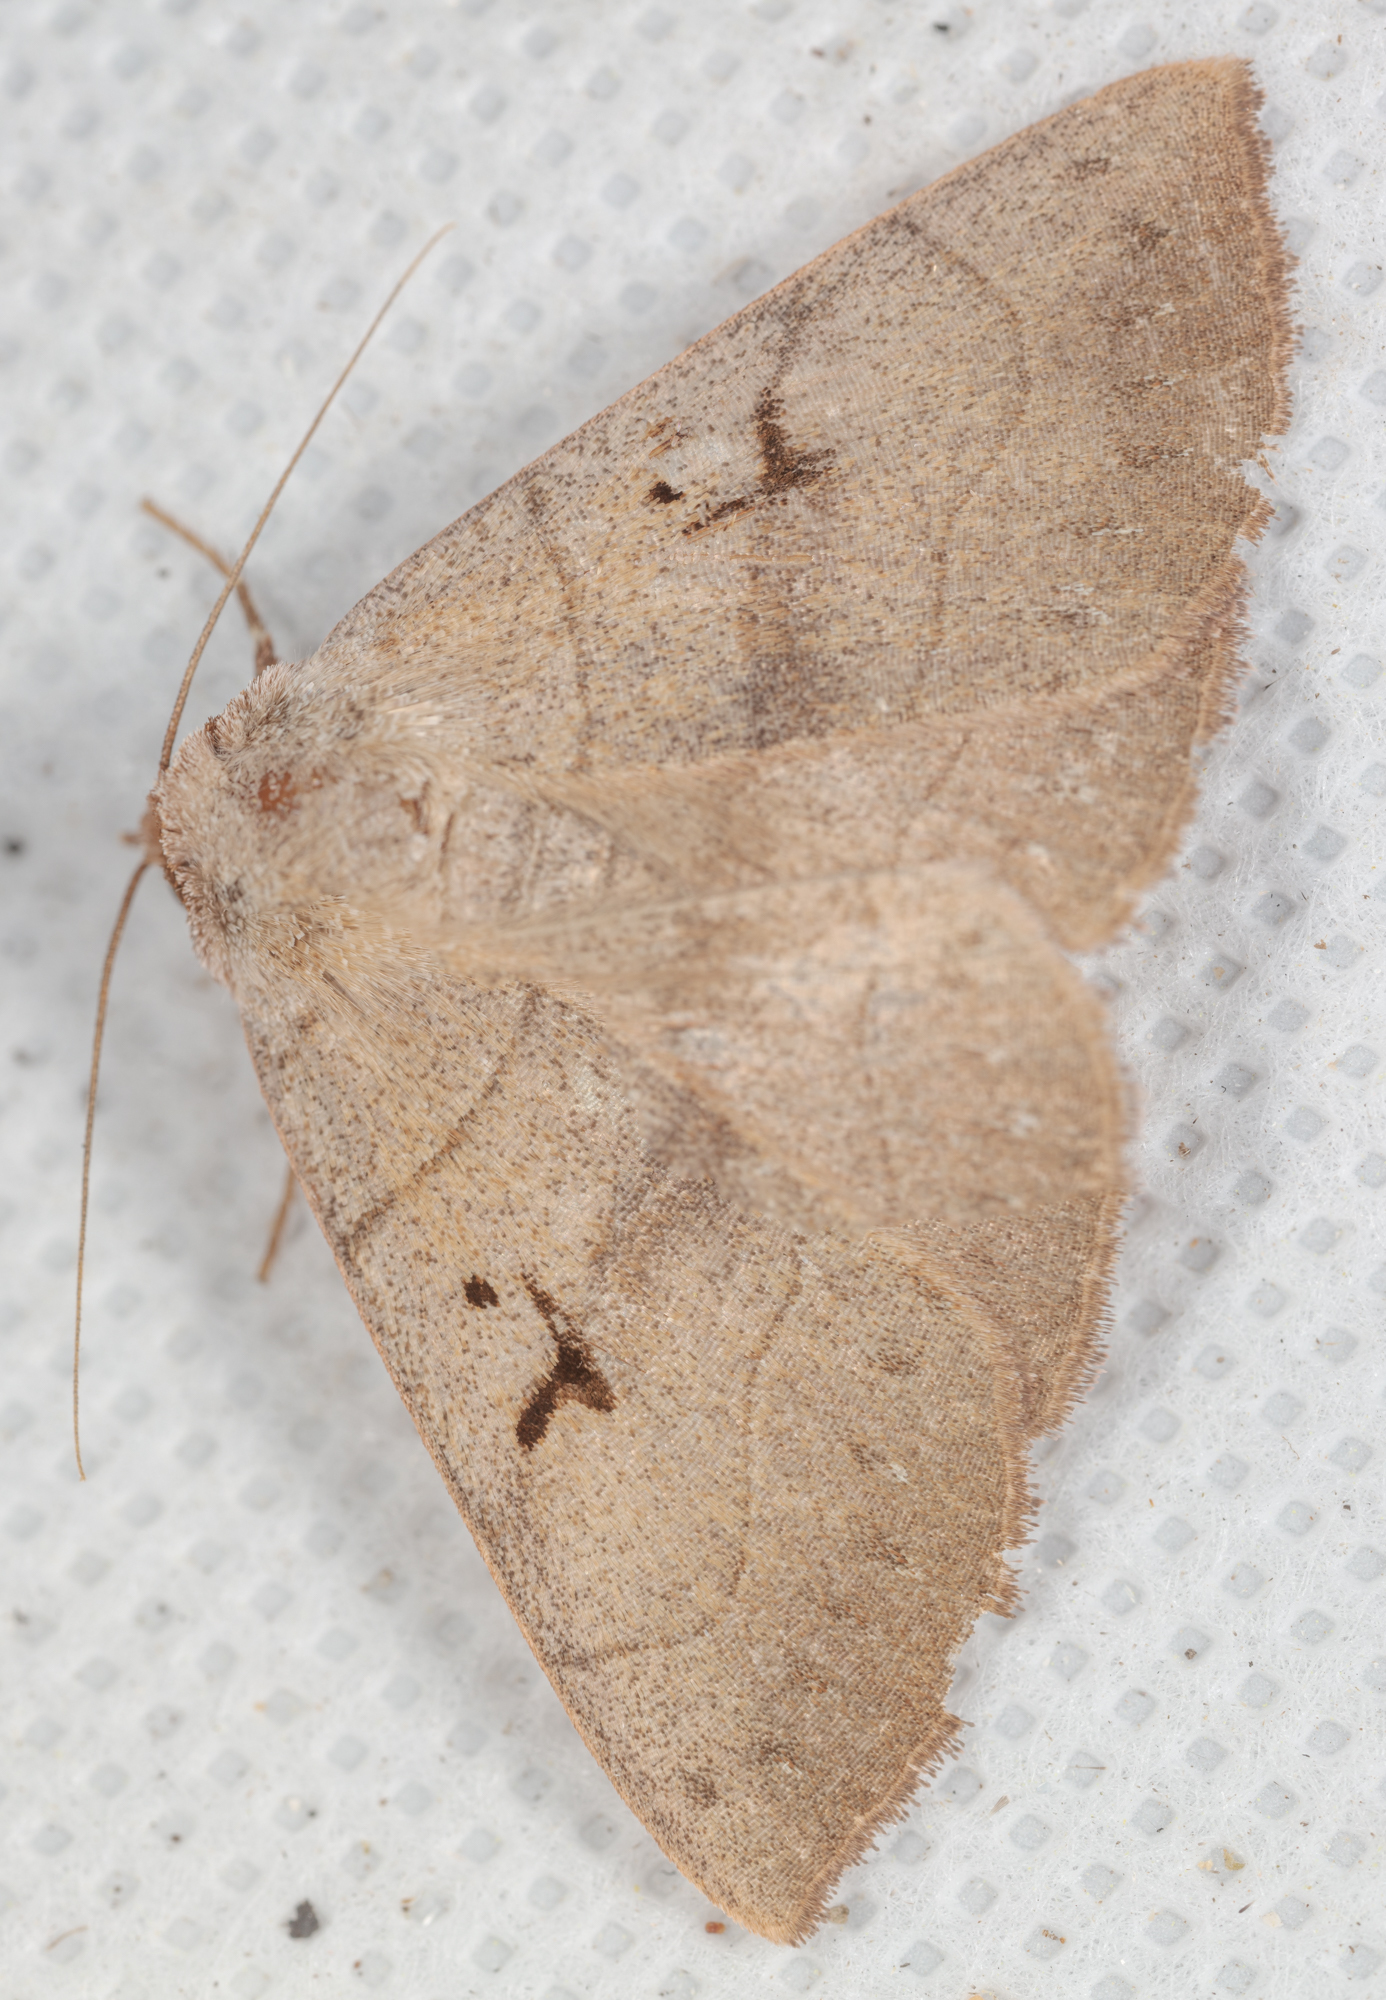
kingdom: Animalia
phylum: Arthropoda
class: Insecta
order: Lepidoptera
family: Erebidae
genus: Panopoda
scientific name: Panopoda carneicosta
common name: Brown panopoda moth
